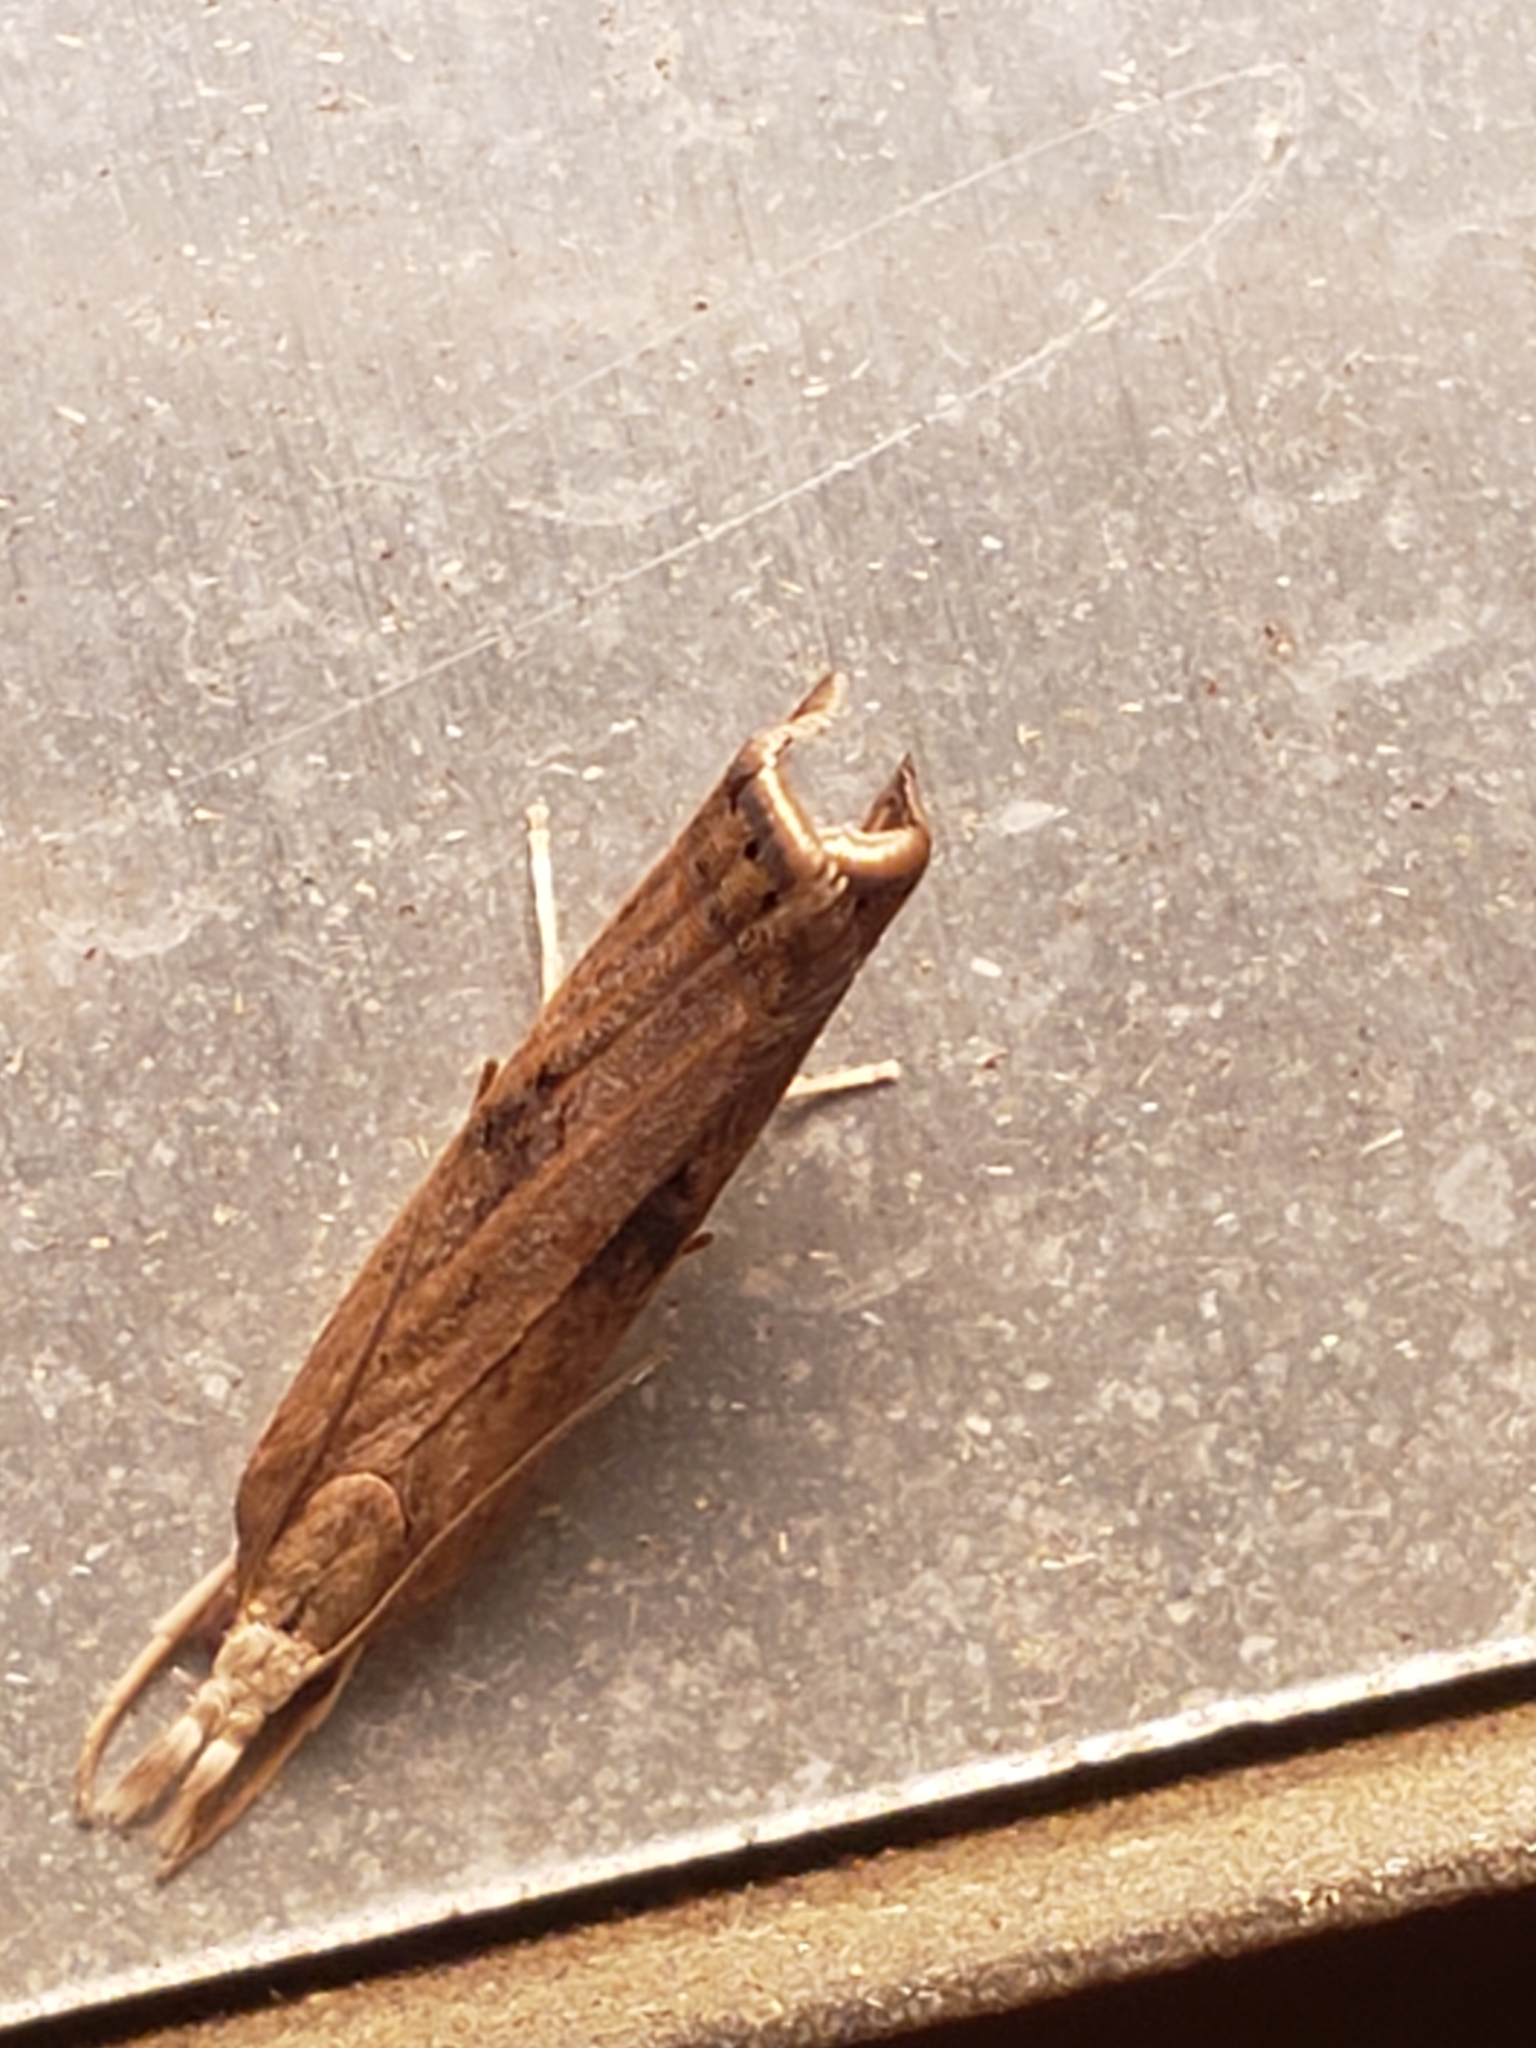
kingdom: Animalia
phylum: Arthropoda
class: Insecta
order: Lepidoptera
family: Crambidae
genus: Parapediasia
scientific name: Parapediasia teterellus
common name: Bluegrass webworm moth
